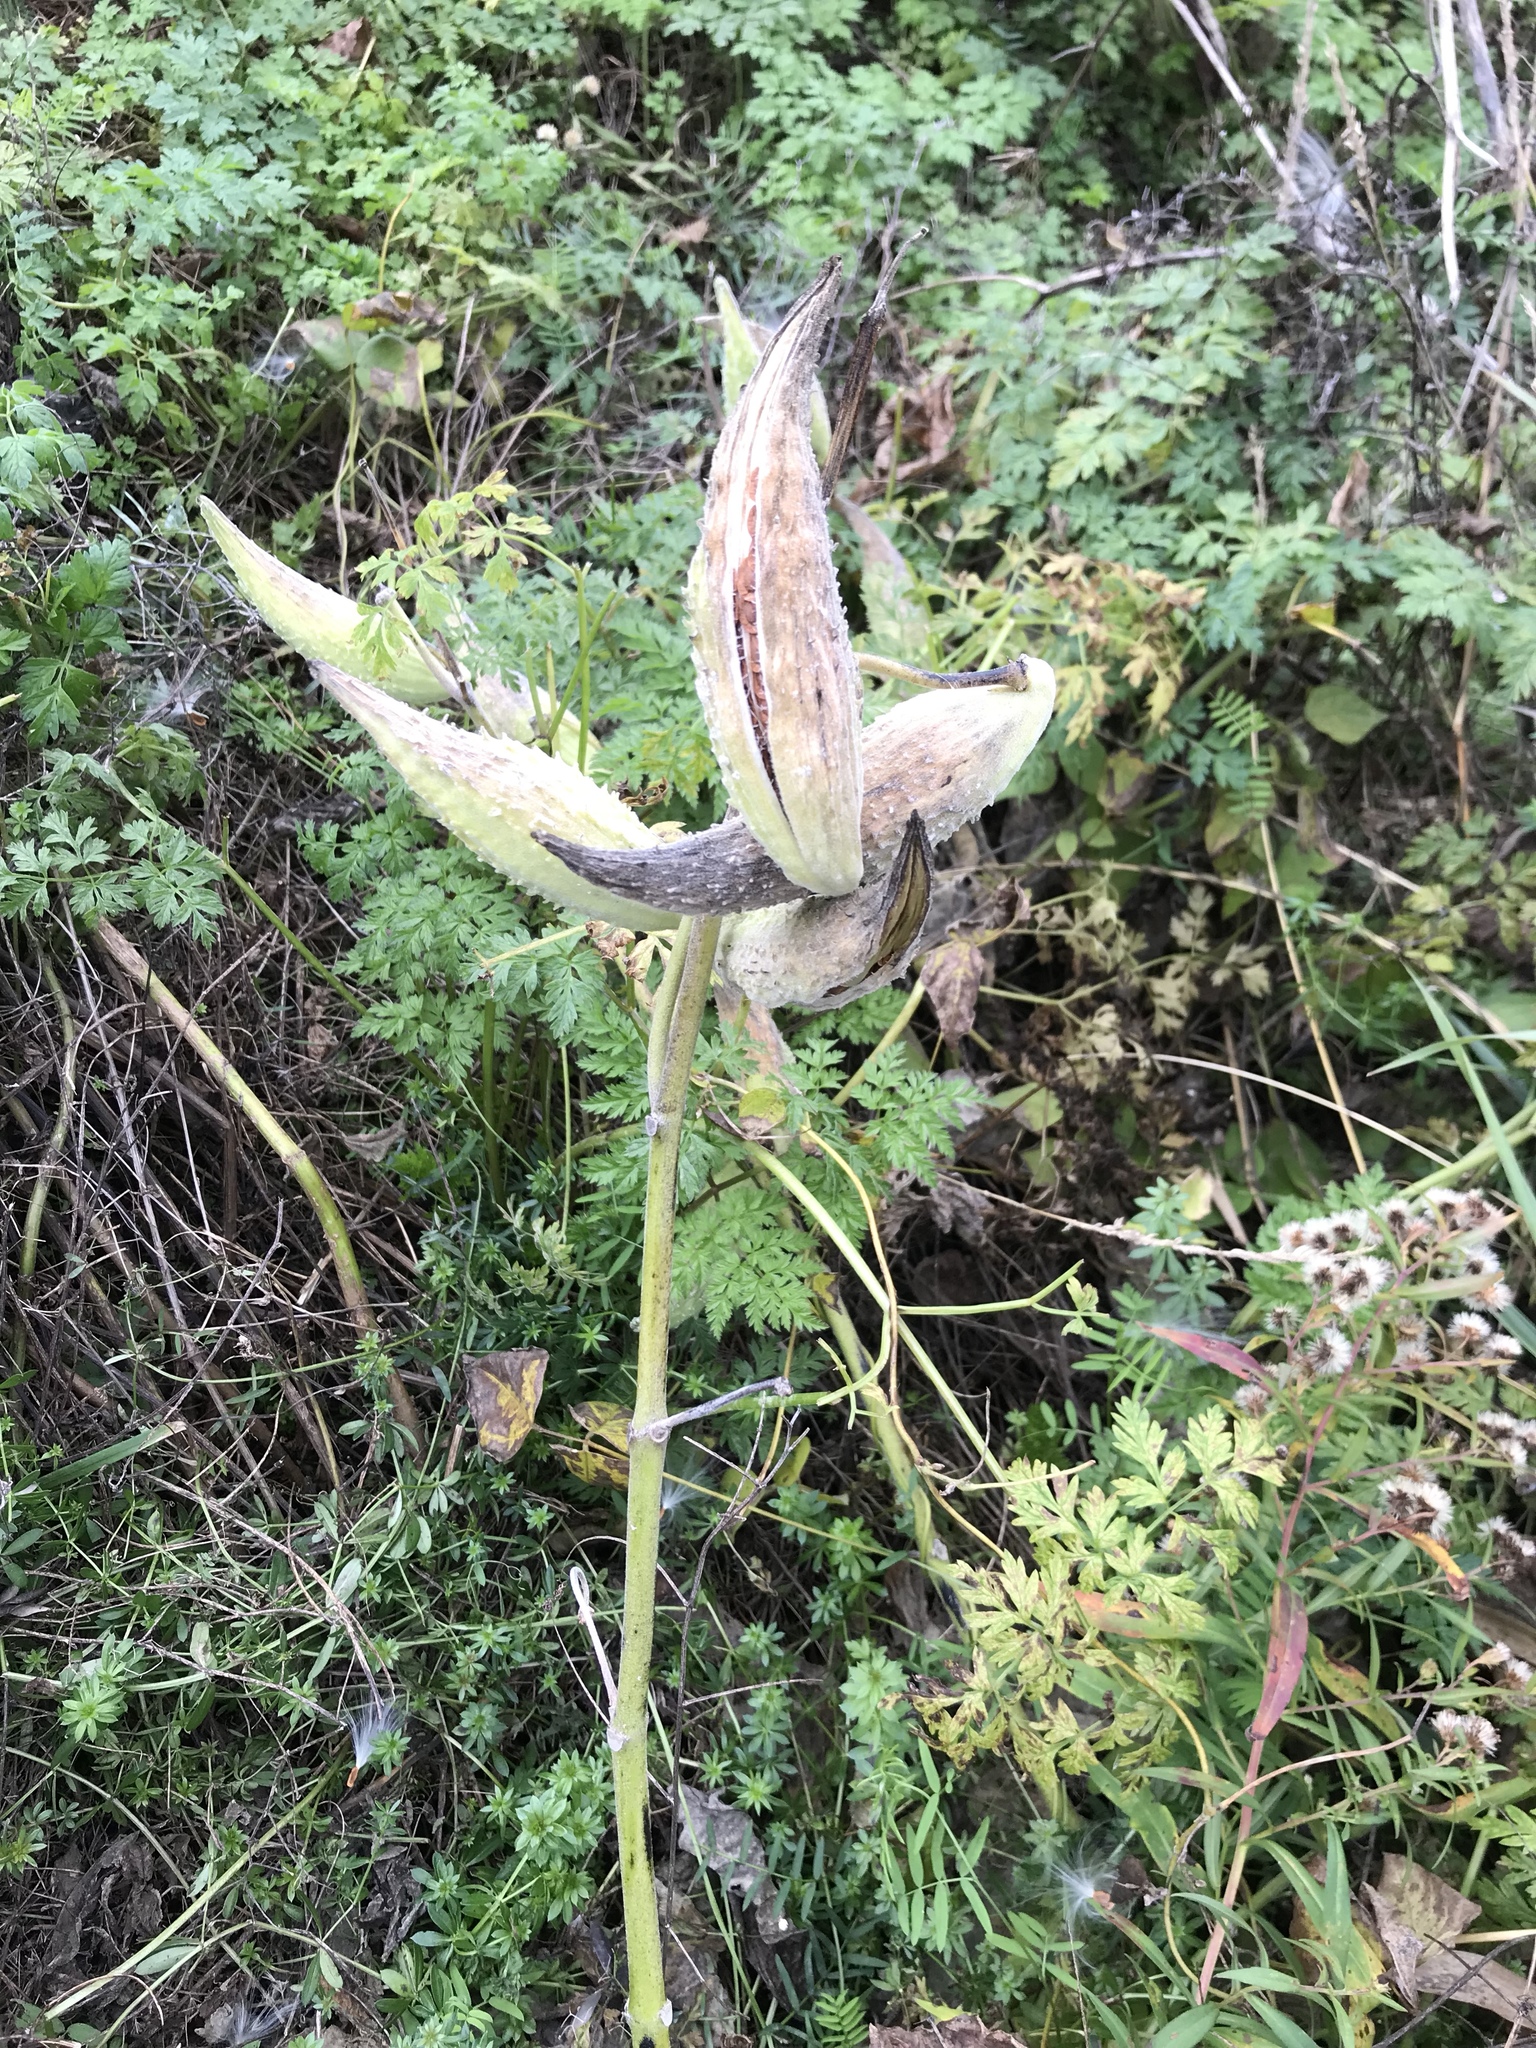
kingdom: Plantae
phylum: Tracheophyta
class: Magnoliopsida
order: Gentianales
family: Apocynaceae
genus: Asclepias
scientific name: Asclepias syriaca
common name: Common milkweed
